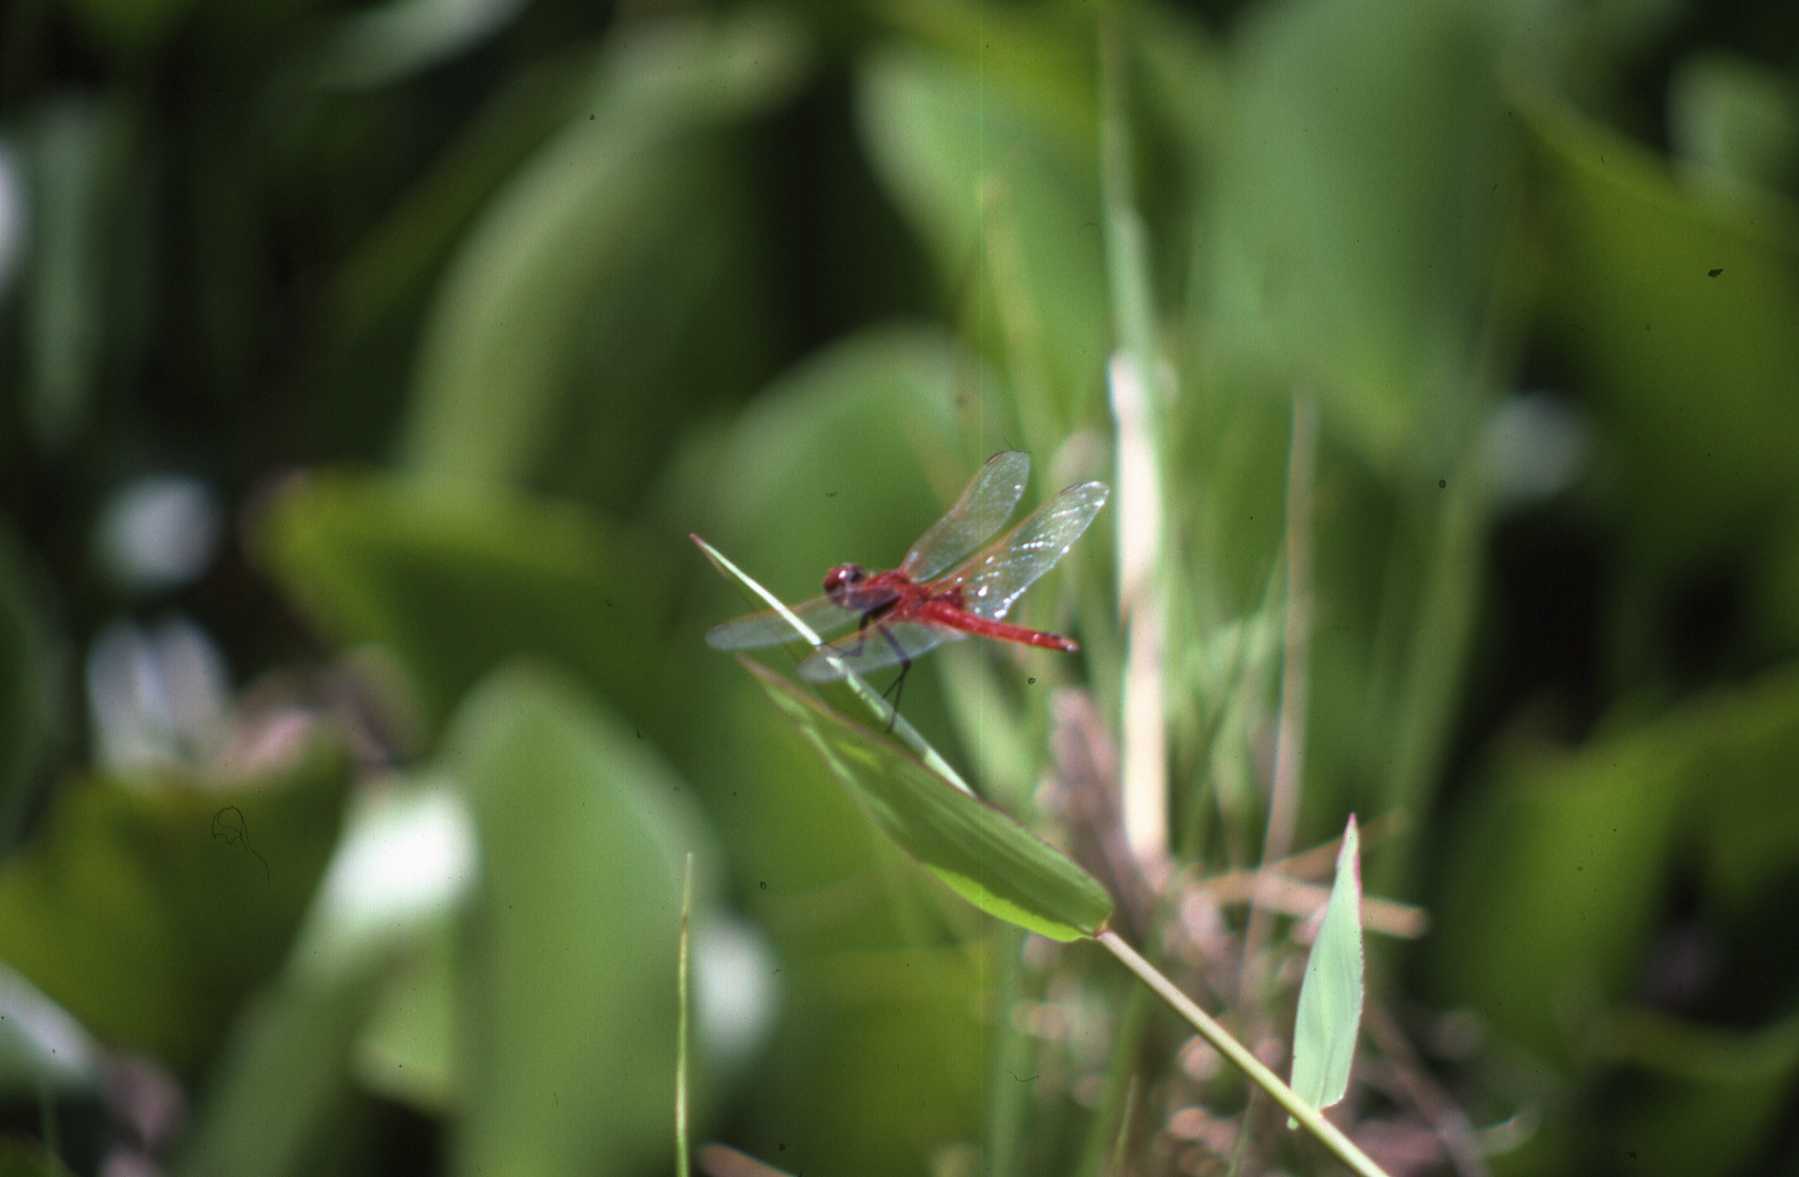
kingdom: Animalia
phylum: Arthropoda
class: Insecta
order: Odonata
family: Libellulidae
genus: Urothemis
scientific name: Urothemis assignata
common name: Red basker
